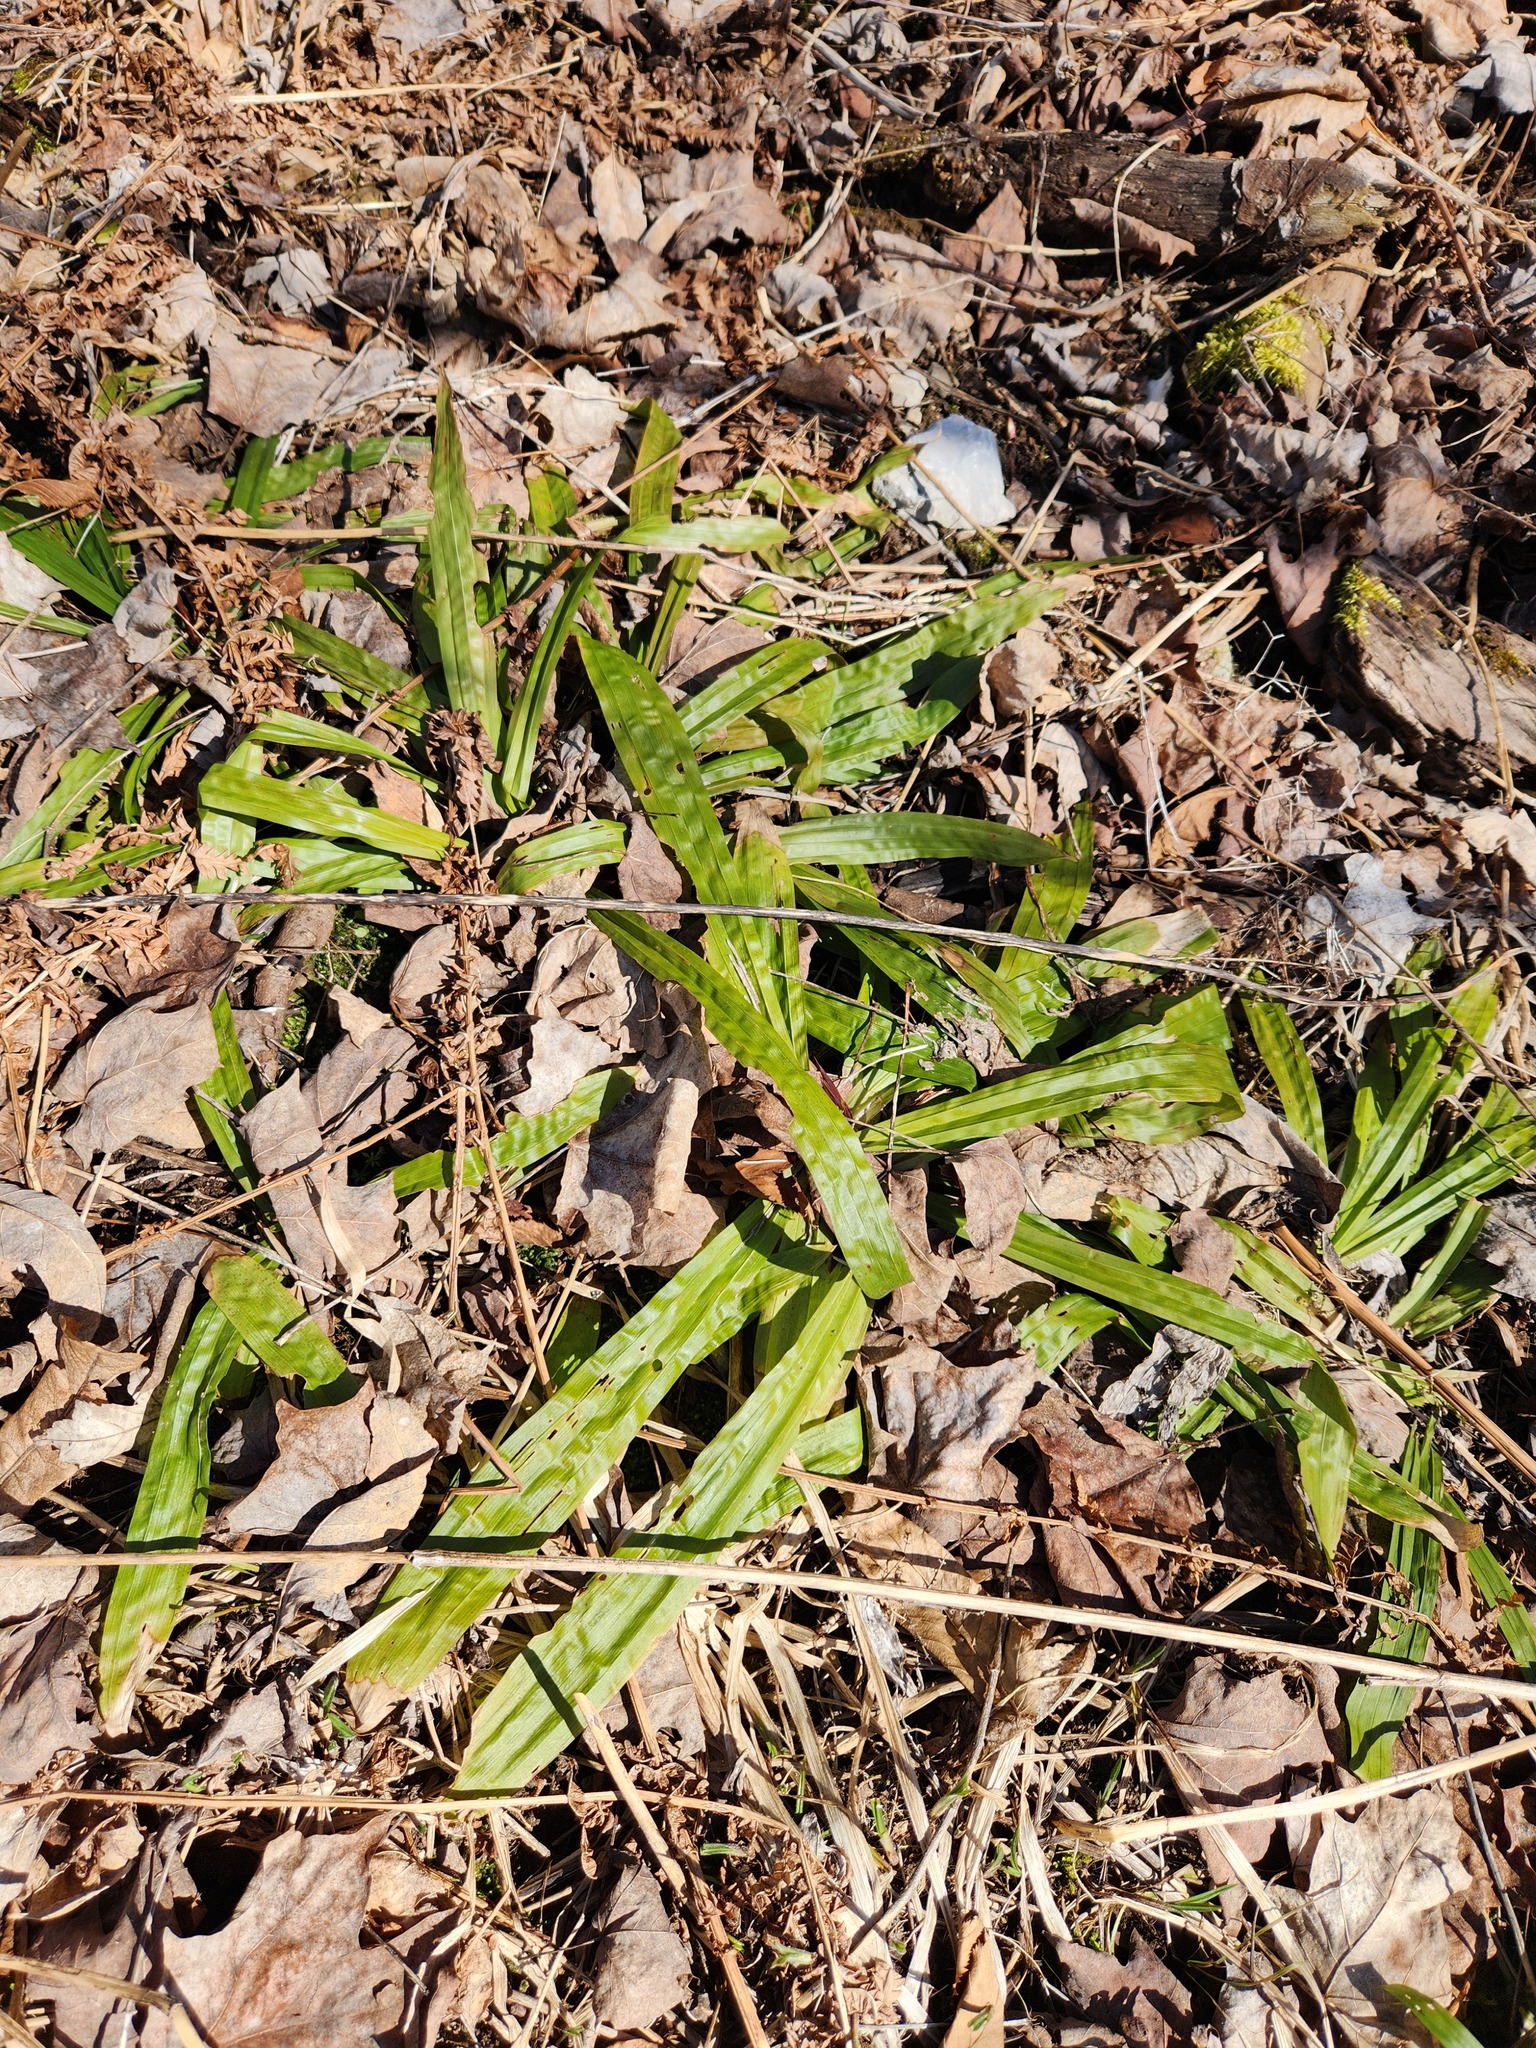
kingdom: Plantae
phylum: Tracheophyta
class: Liliopsida
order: Poales
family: Cyperaceae
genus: Carex
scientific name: Carex plantaginea
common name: Plantain-leaved sedge
